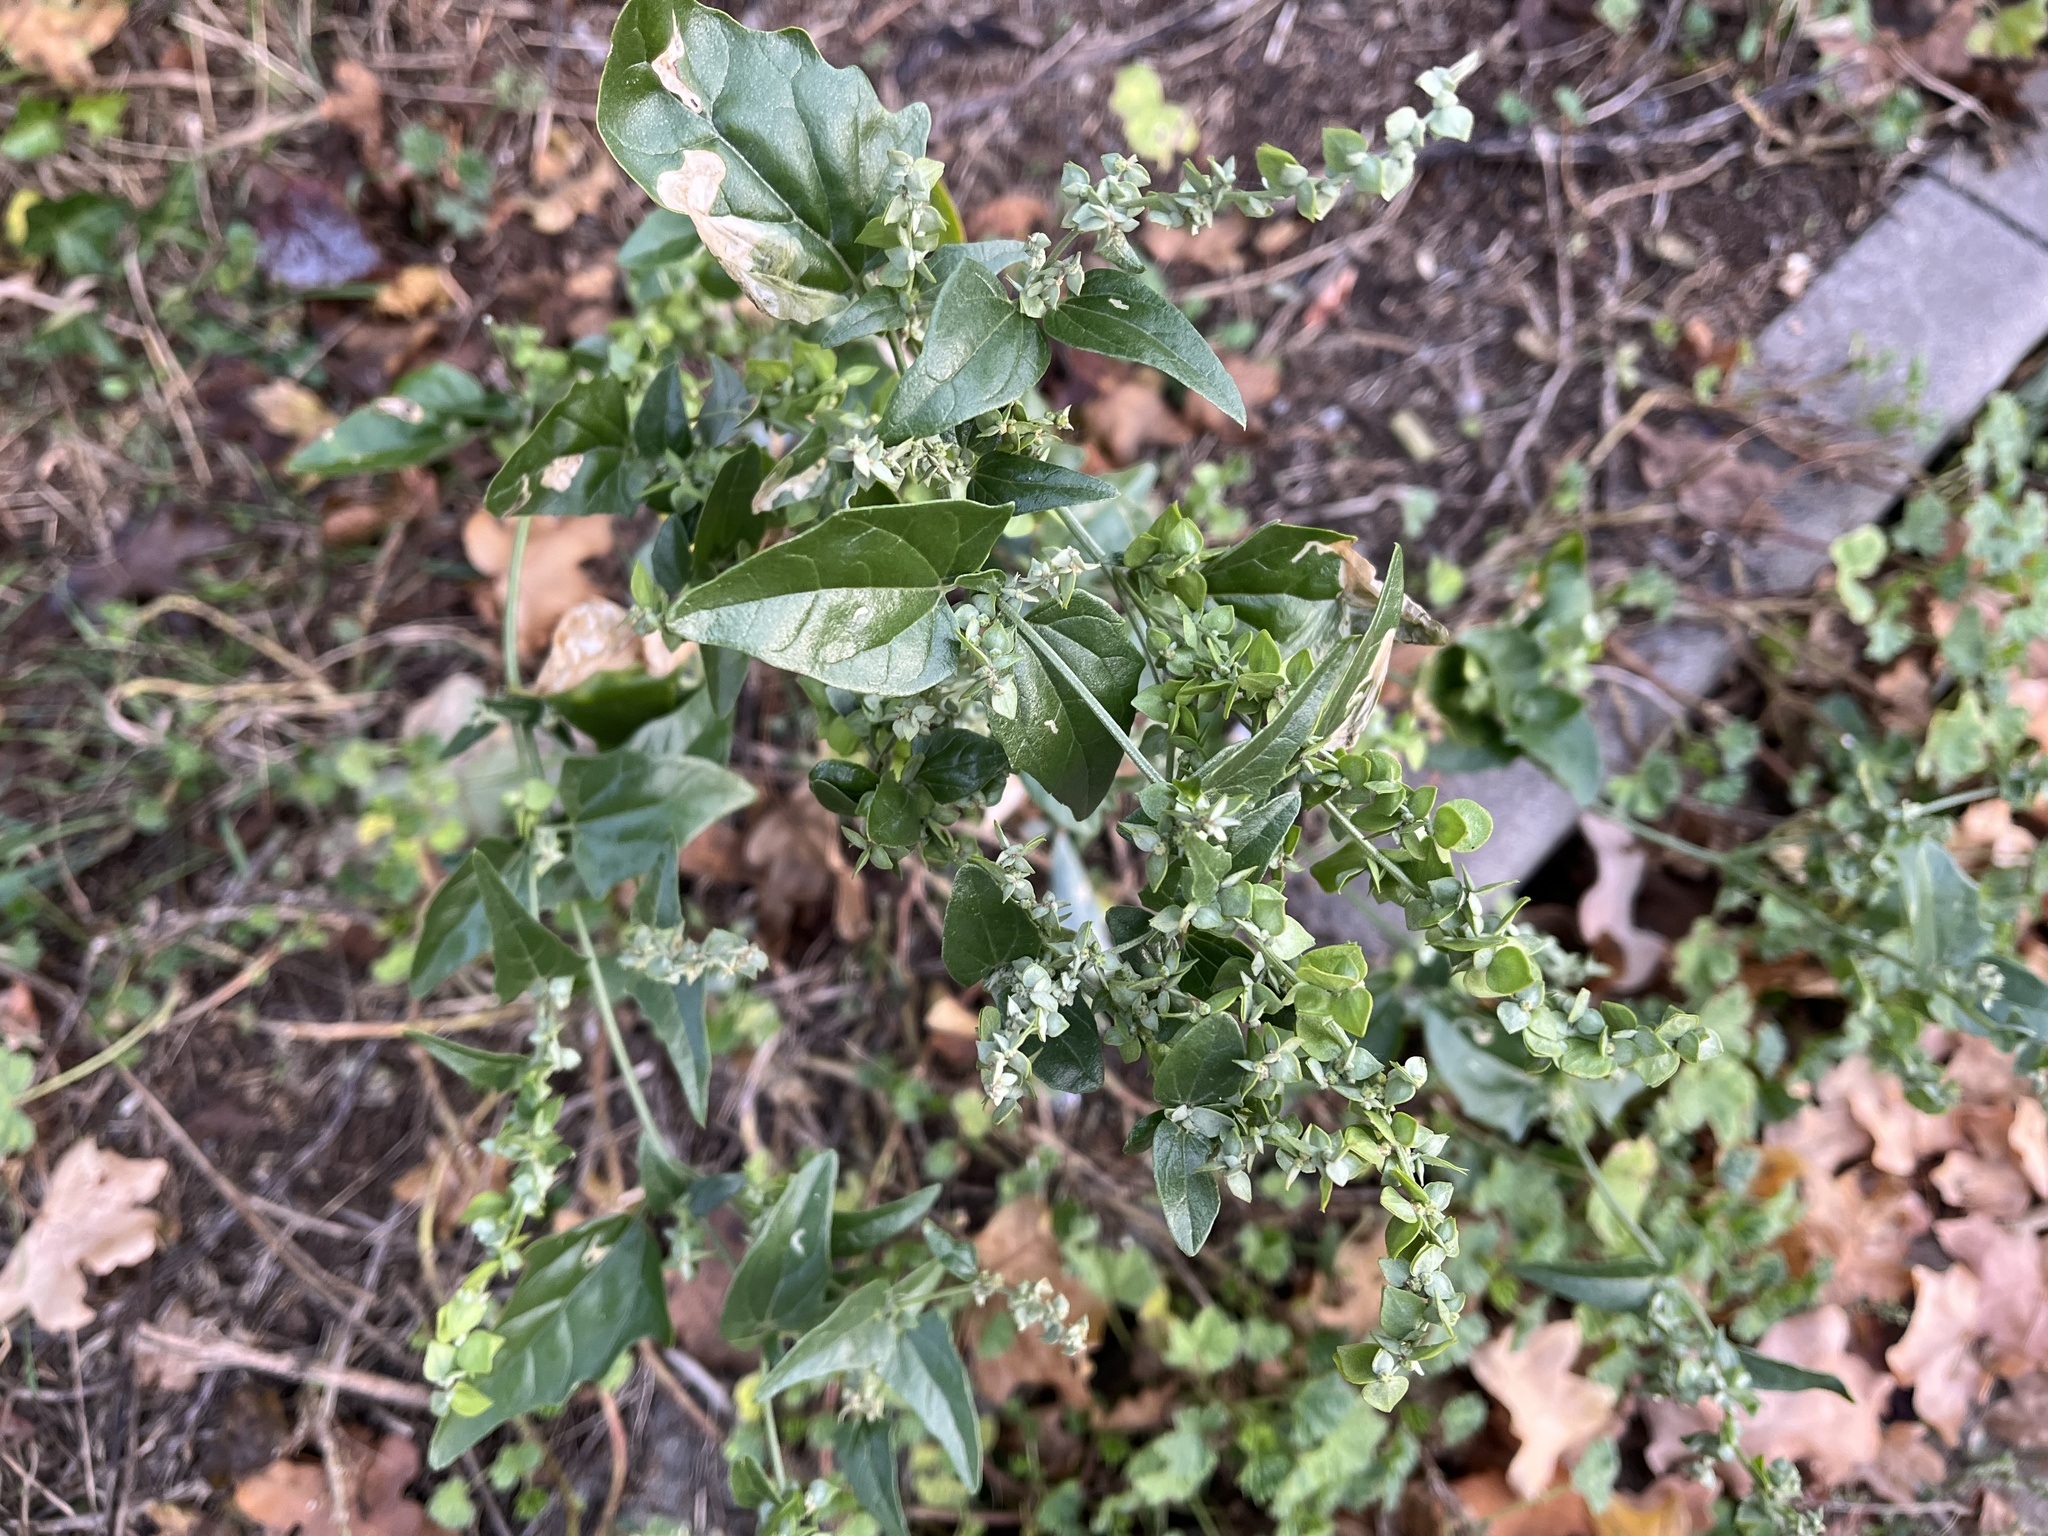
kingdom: Plantae
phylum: Tracheophyta
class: Magnoliopsida
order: Caryophyllales
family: Amaranthaceae
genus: Atriplex
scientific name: Atriplex sagittata
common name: Purple orache
